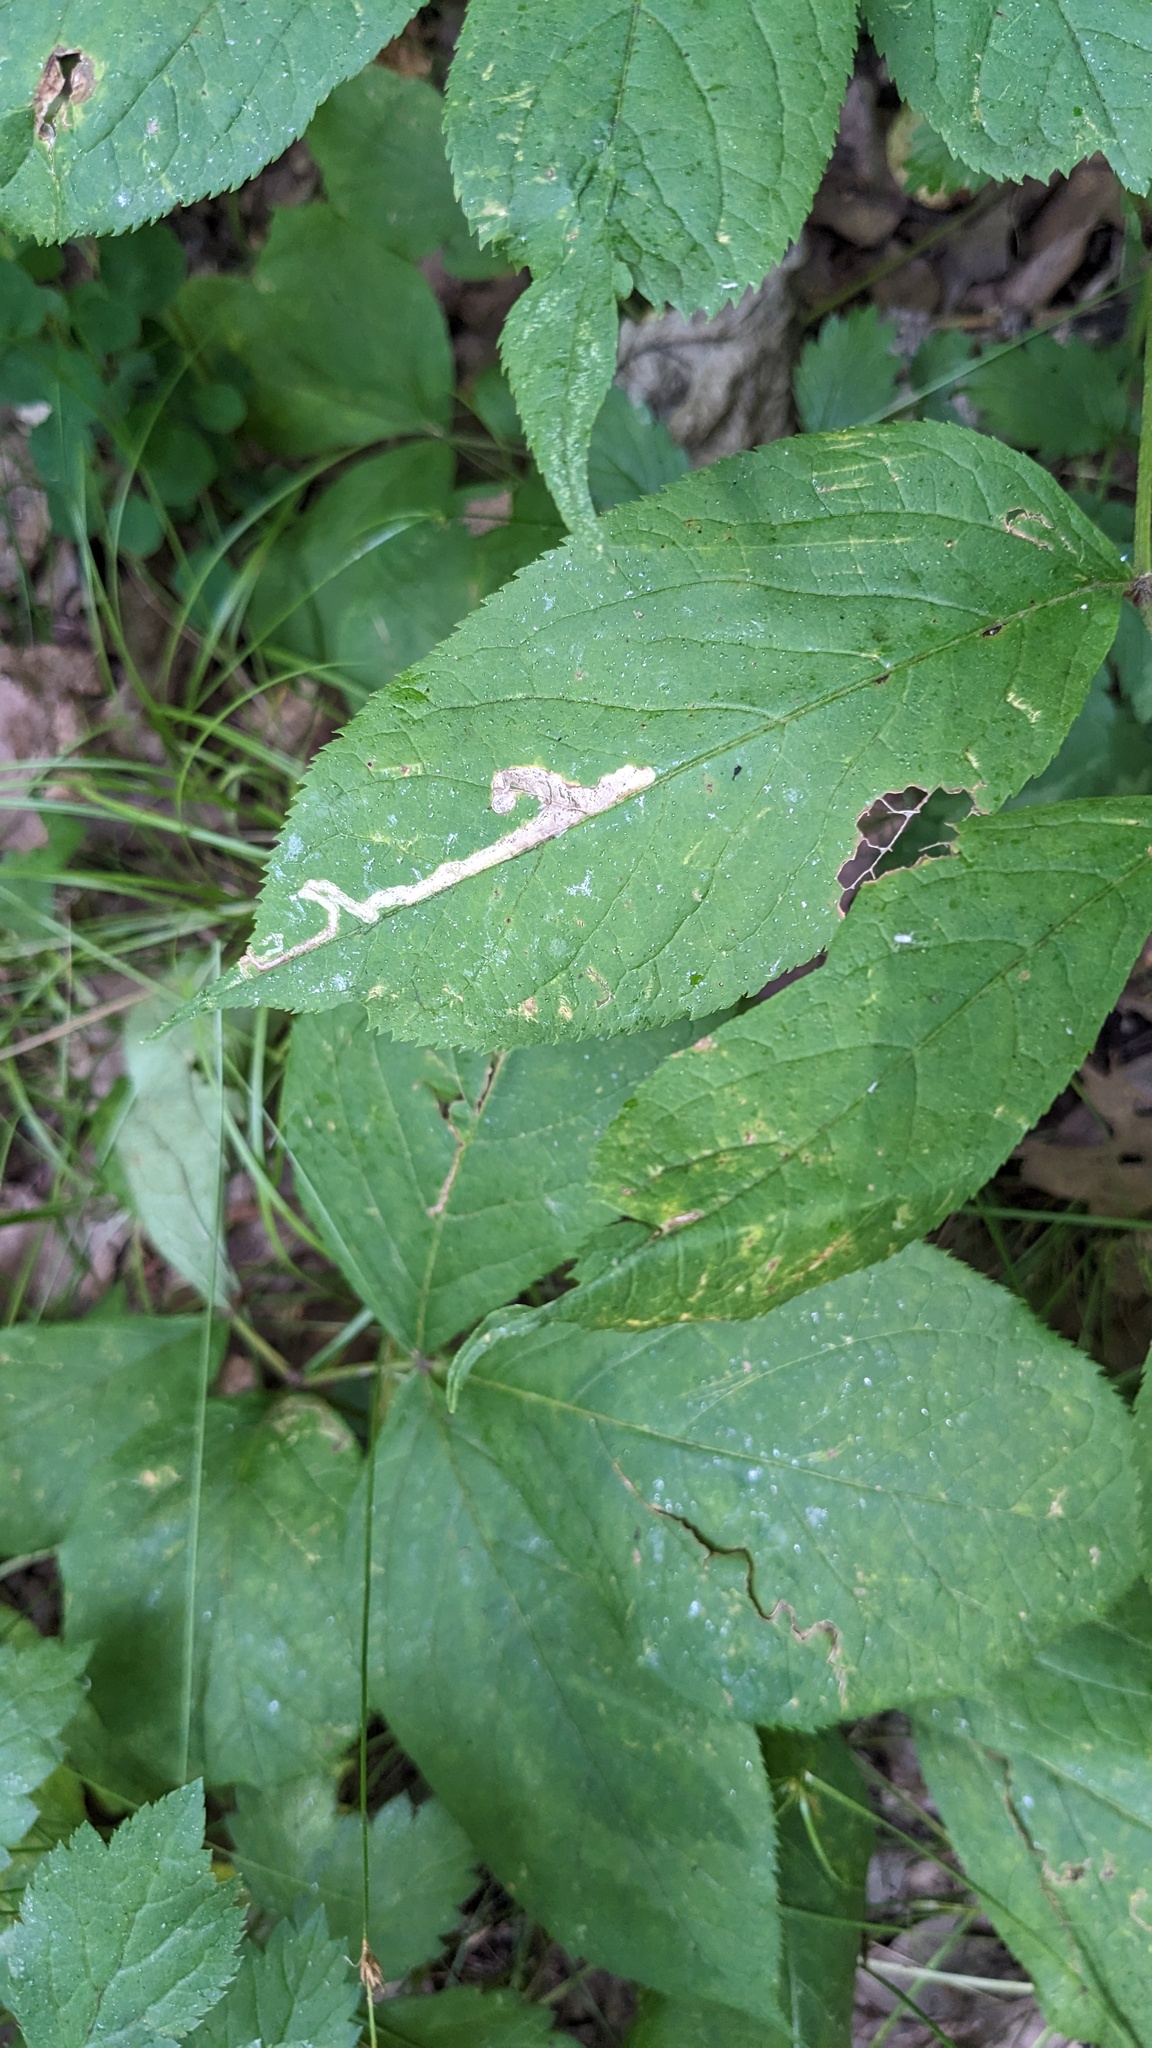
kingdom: Animalia
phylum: Arthropoda
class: Insecta
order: Diptera
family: Agromyzidae
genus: Phytomyza
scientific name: Phytomyza aralivora
